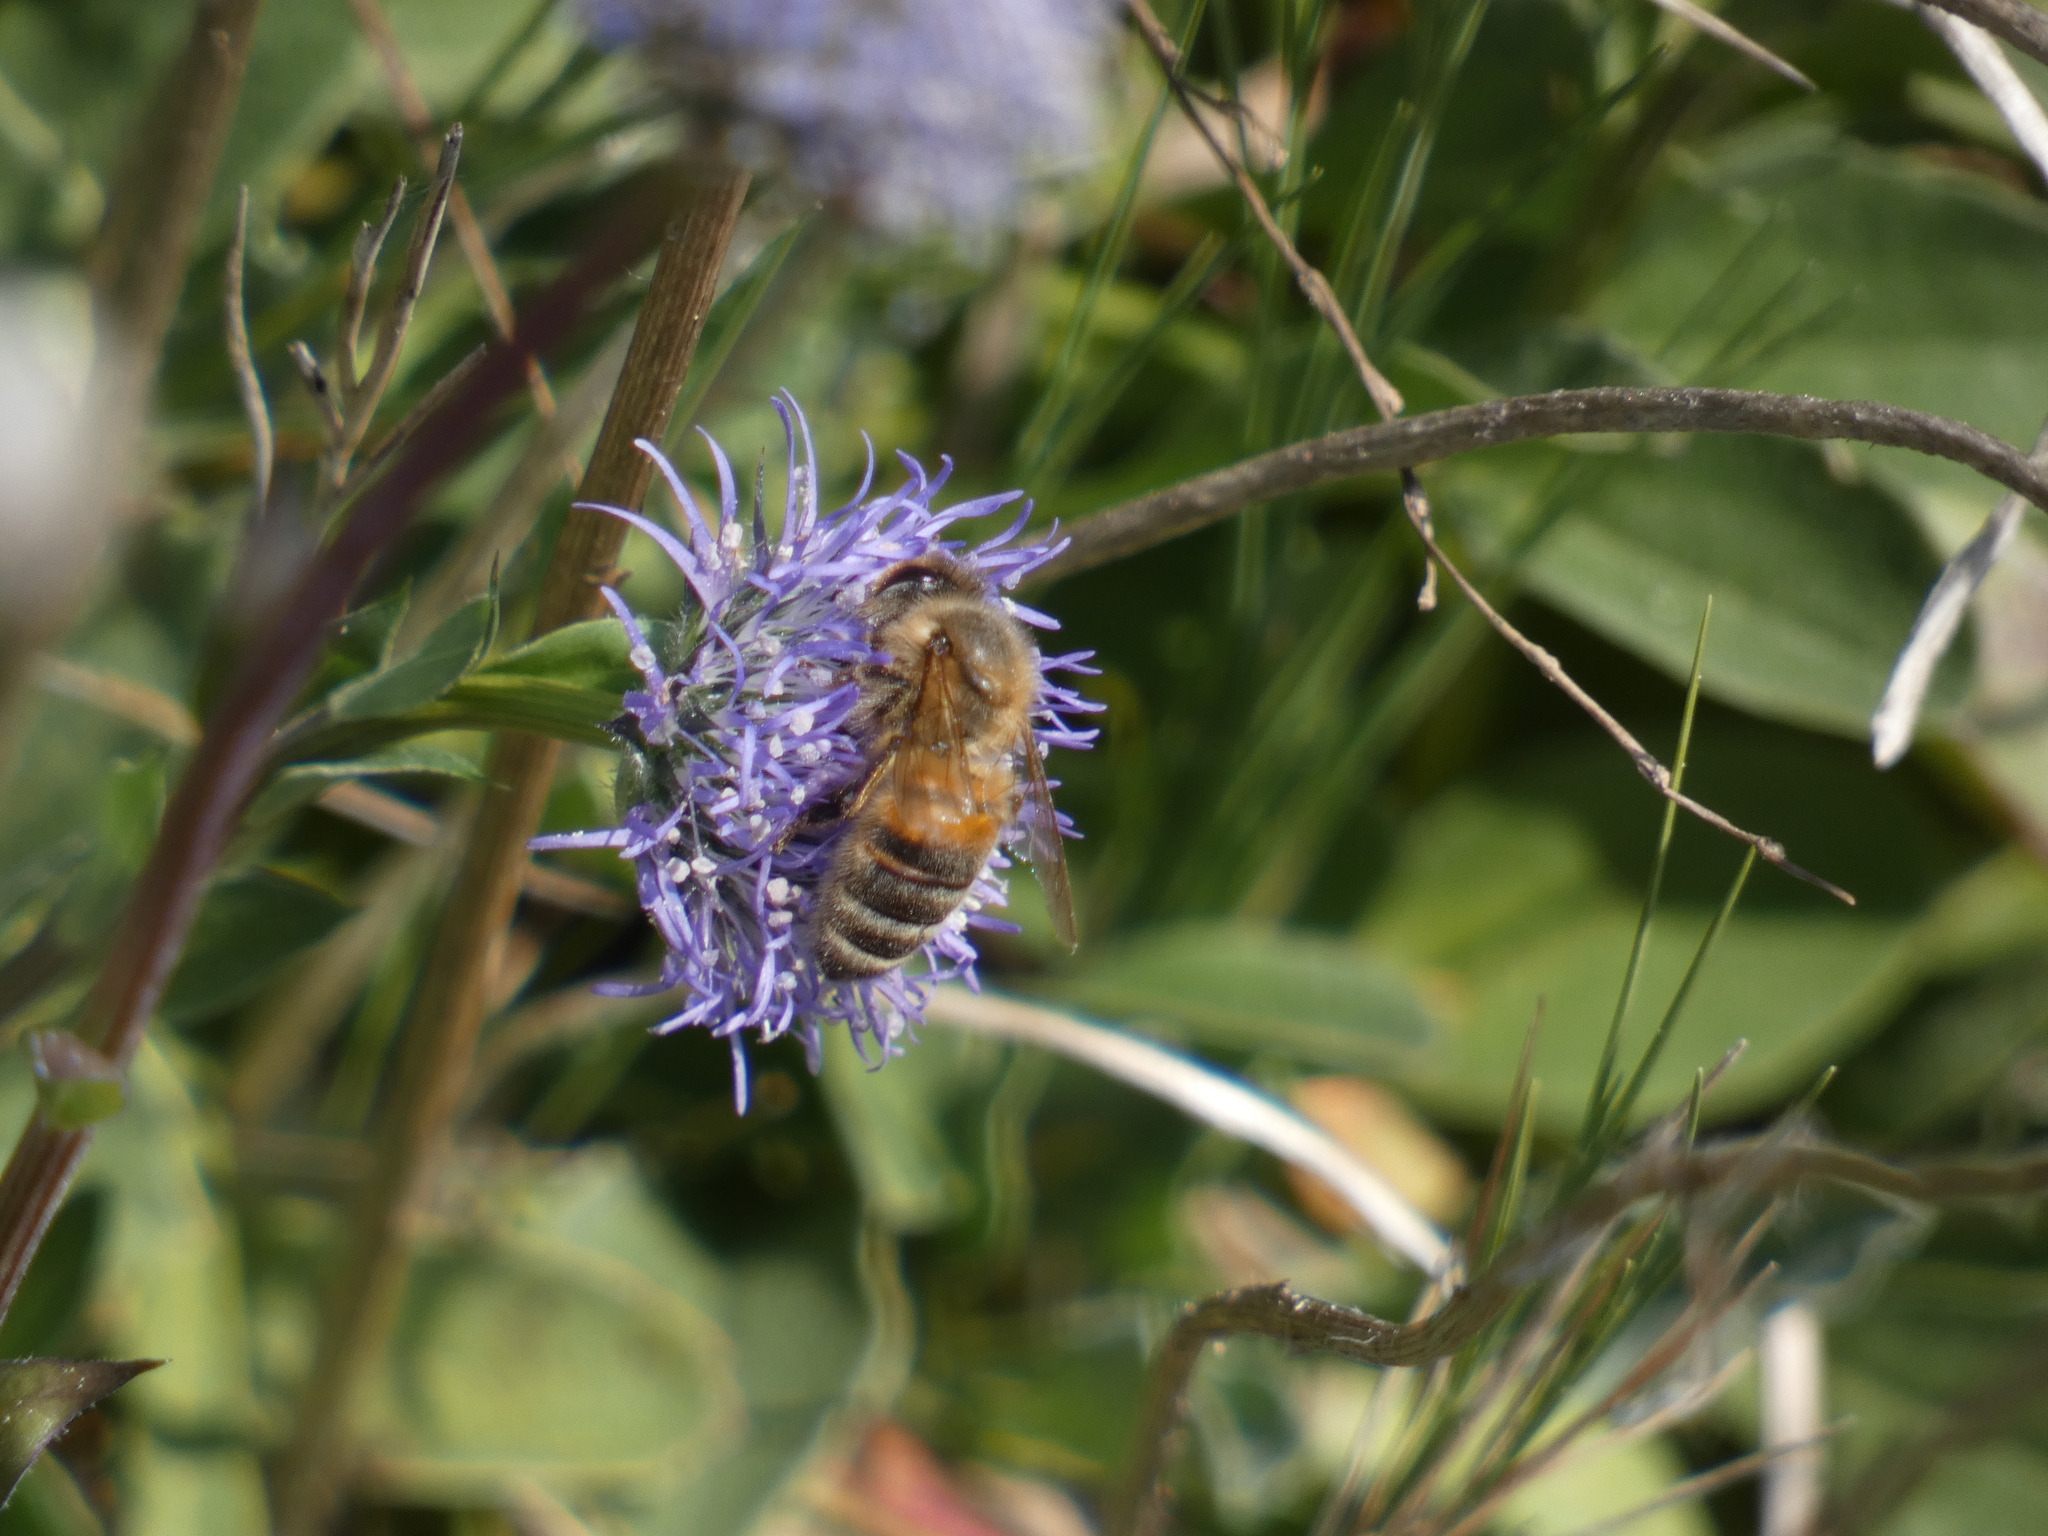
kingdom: Animalia
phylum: Arthropoda
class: Insecta
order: Hymenoptera
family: Apidae
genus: Apis
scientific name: Apis mellifera
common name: Honey bee
